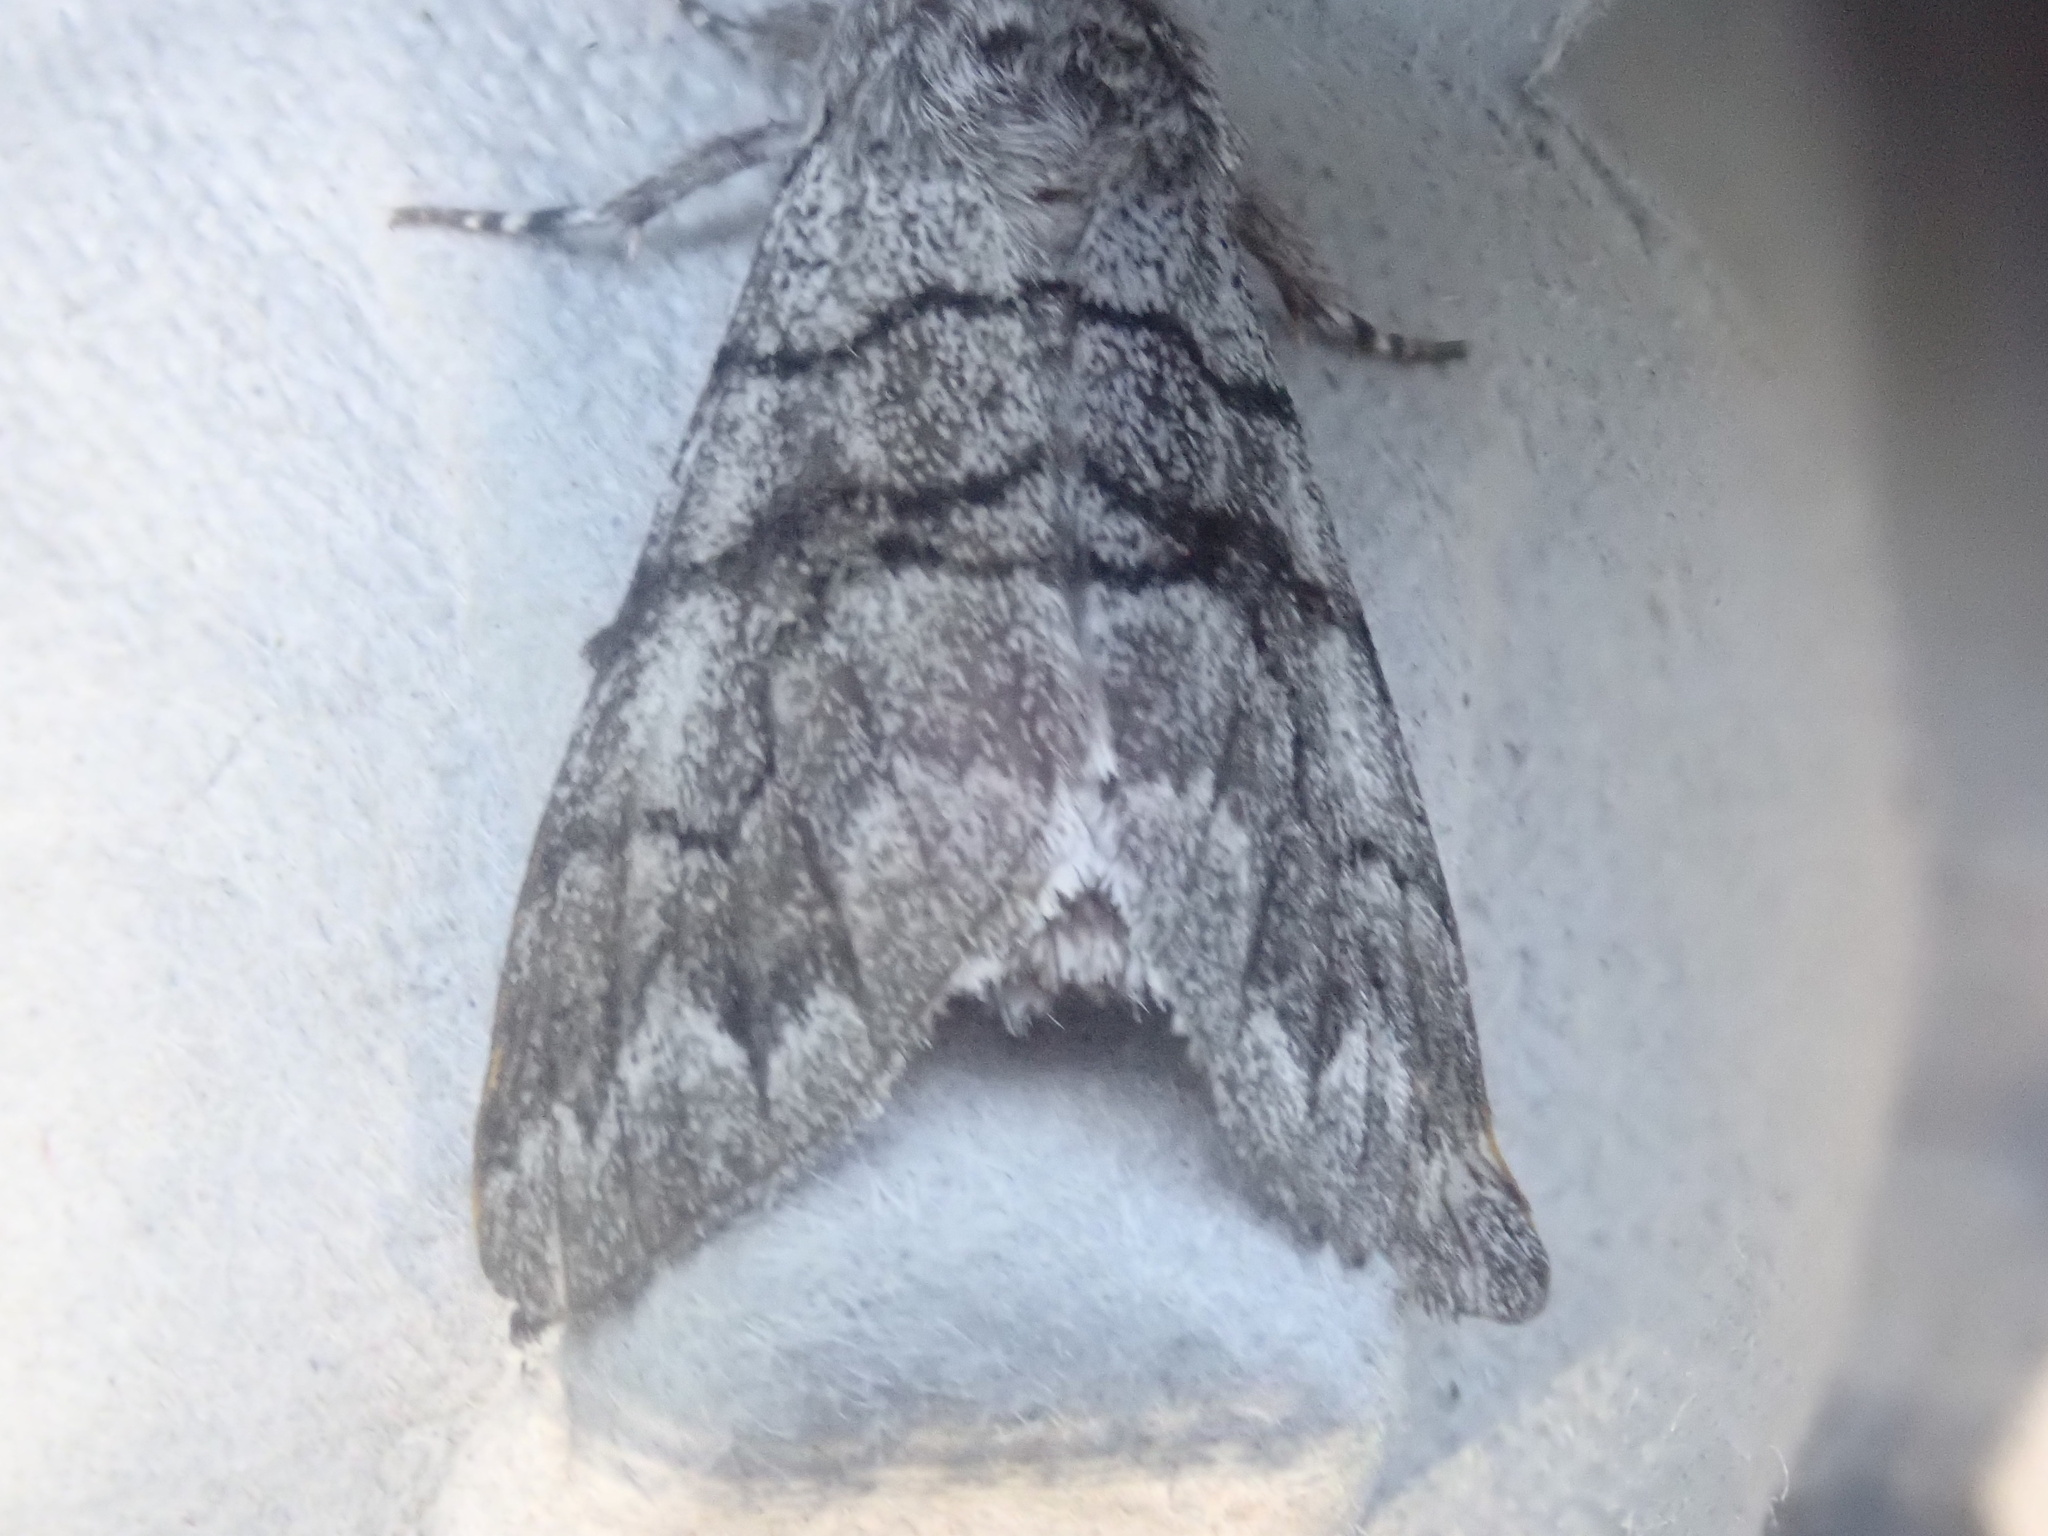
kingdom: Animalia
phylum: Arthropoda
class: Insecta
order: Lepidoptera
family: Noctuidae
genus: Panthea
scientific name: Panthea furcilla
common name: Eastern panthea moth
